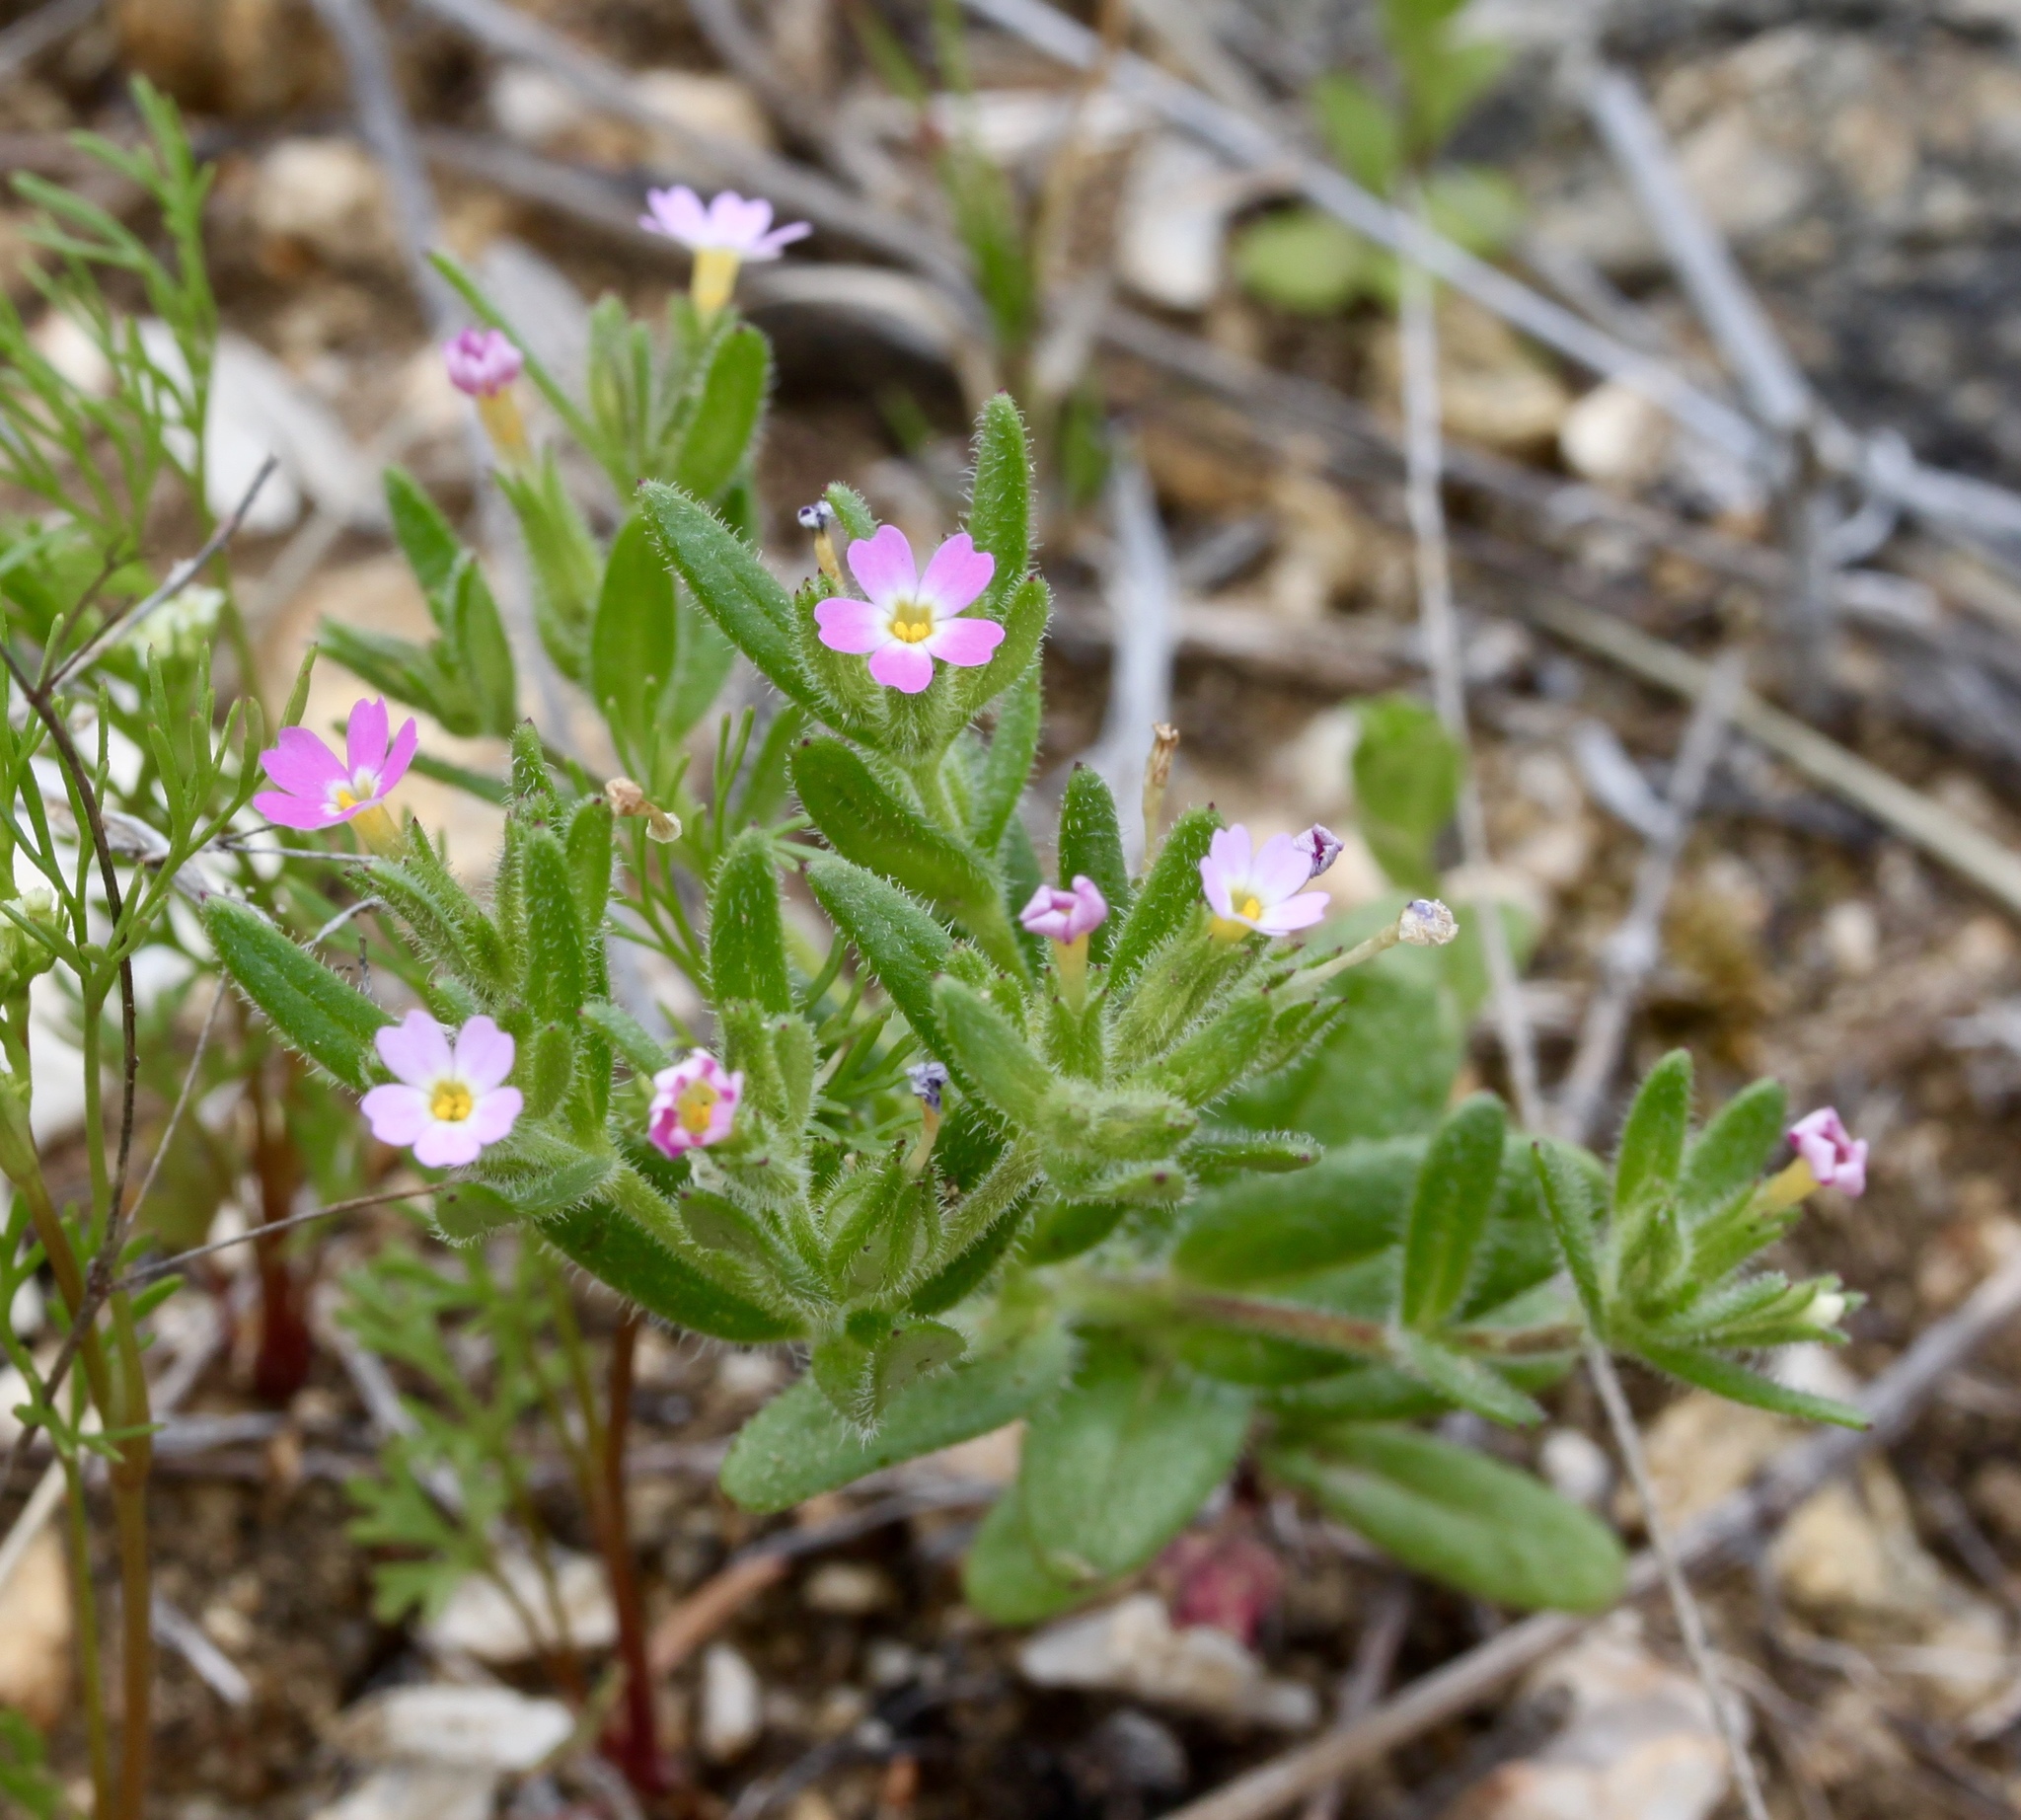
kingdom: Plantae
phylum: Tracheophyta
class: Magnoliopsida
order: Ericales
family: Polemoniaceae
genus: Phlox
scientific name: Phlox gracilis
